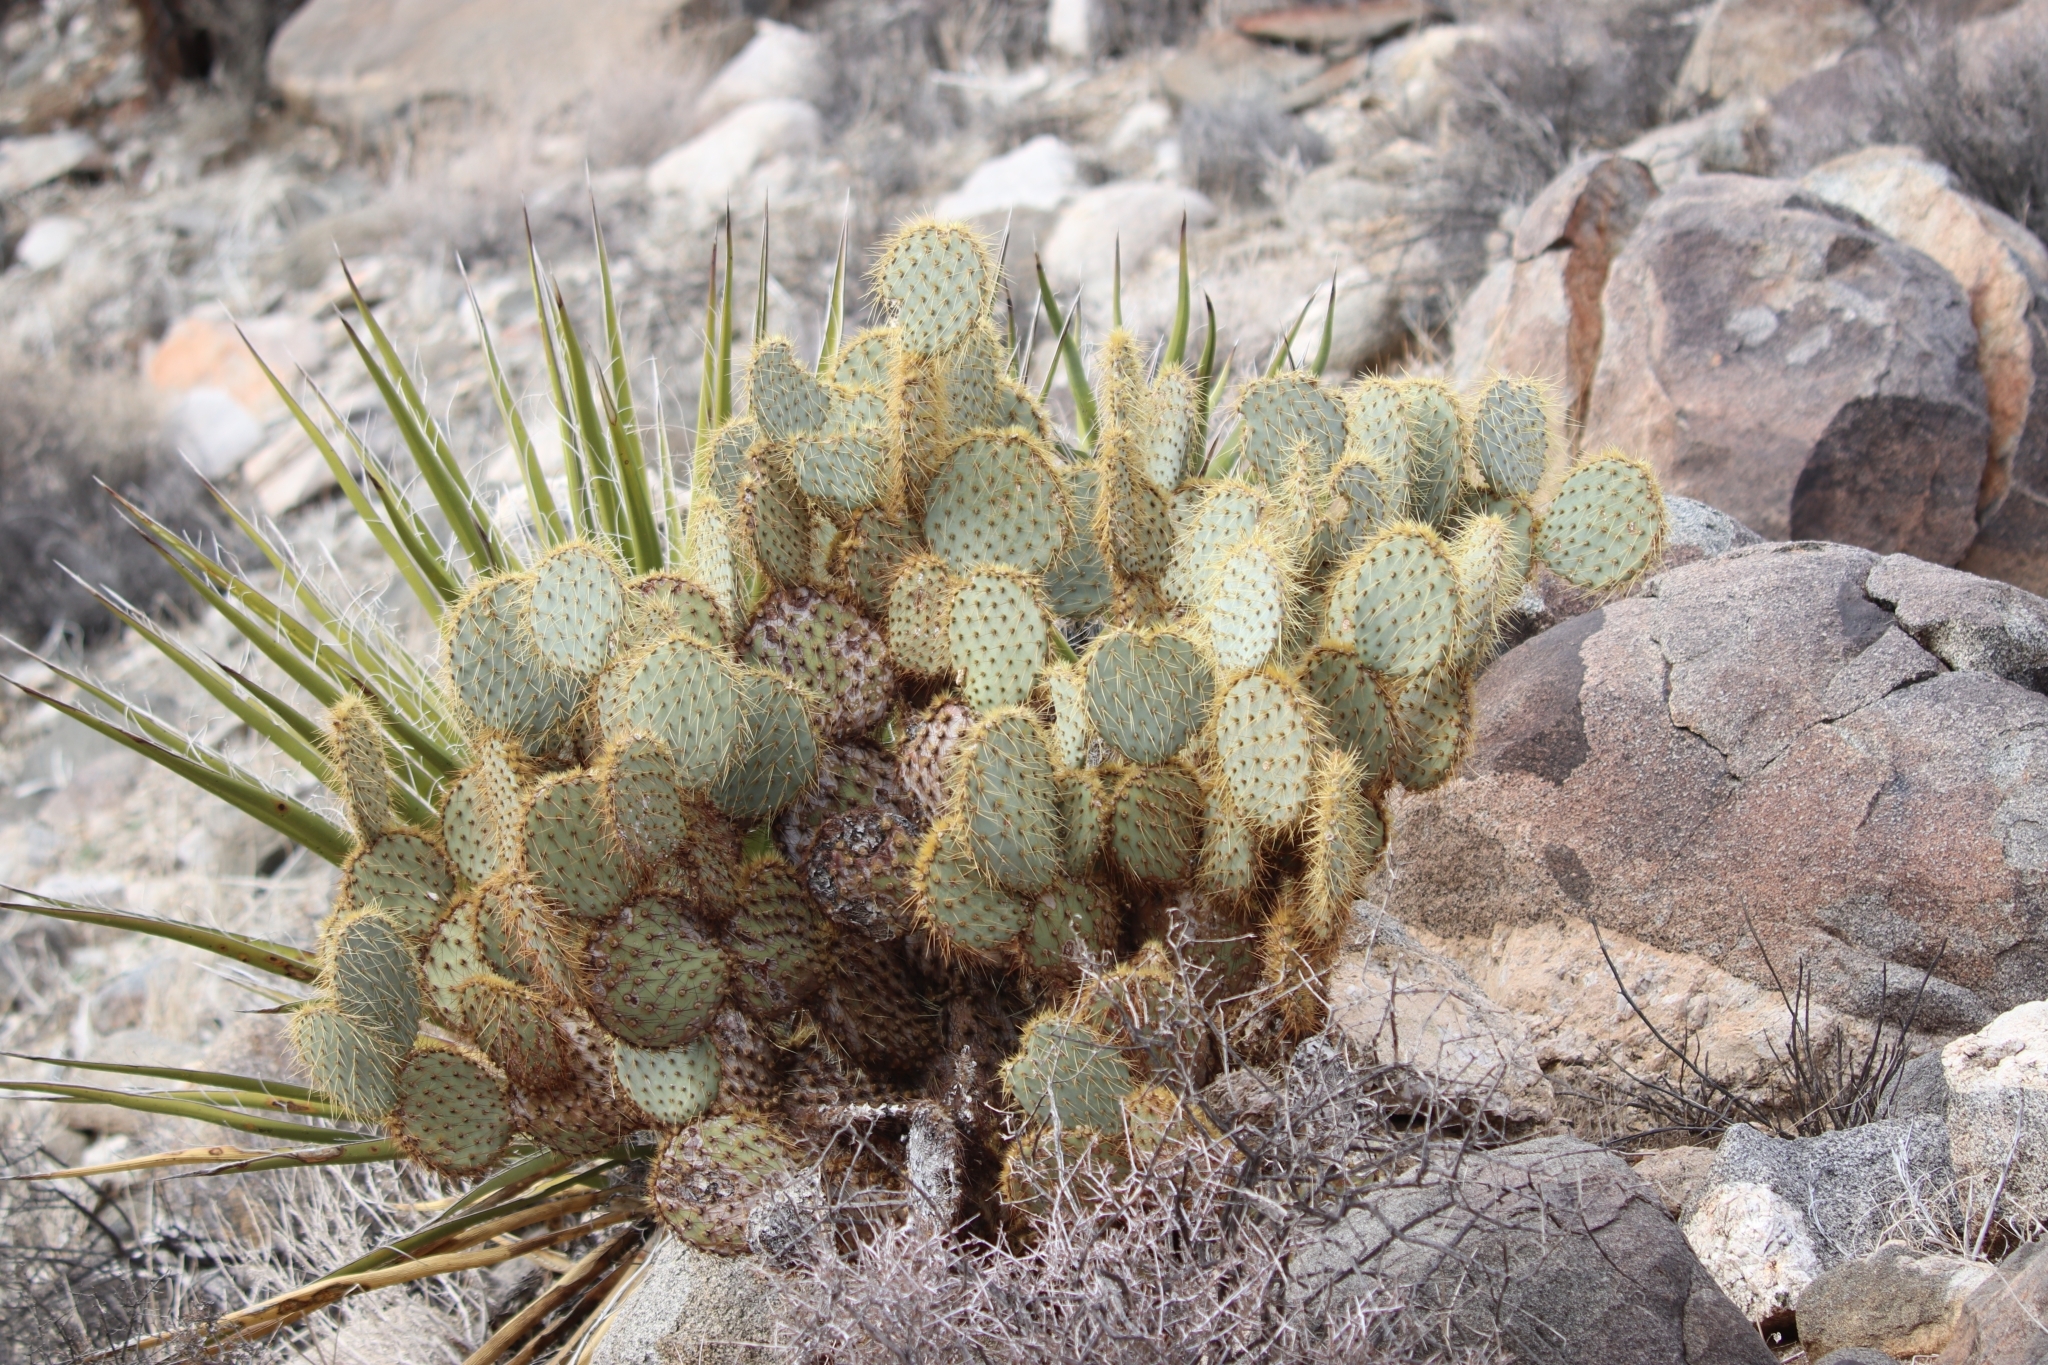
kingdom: Plantae
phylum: Tracheophyta
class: Magnoliopsida
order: Caryophyllales
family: Cactaceae
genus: Opuntia
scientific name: Opuntia chlorotica
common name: Dollar-joint prickly-pear
